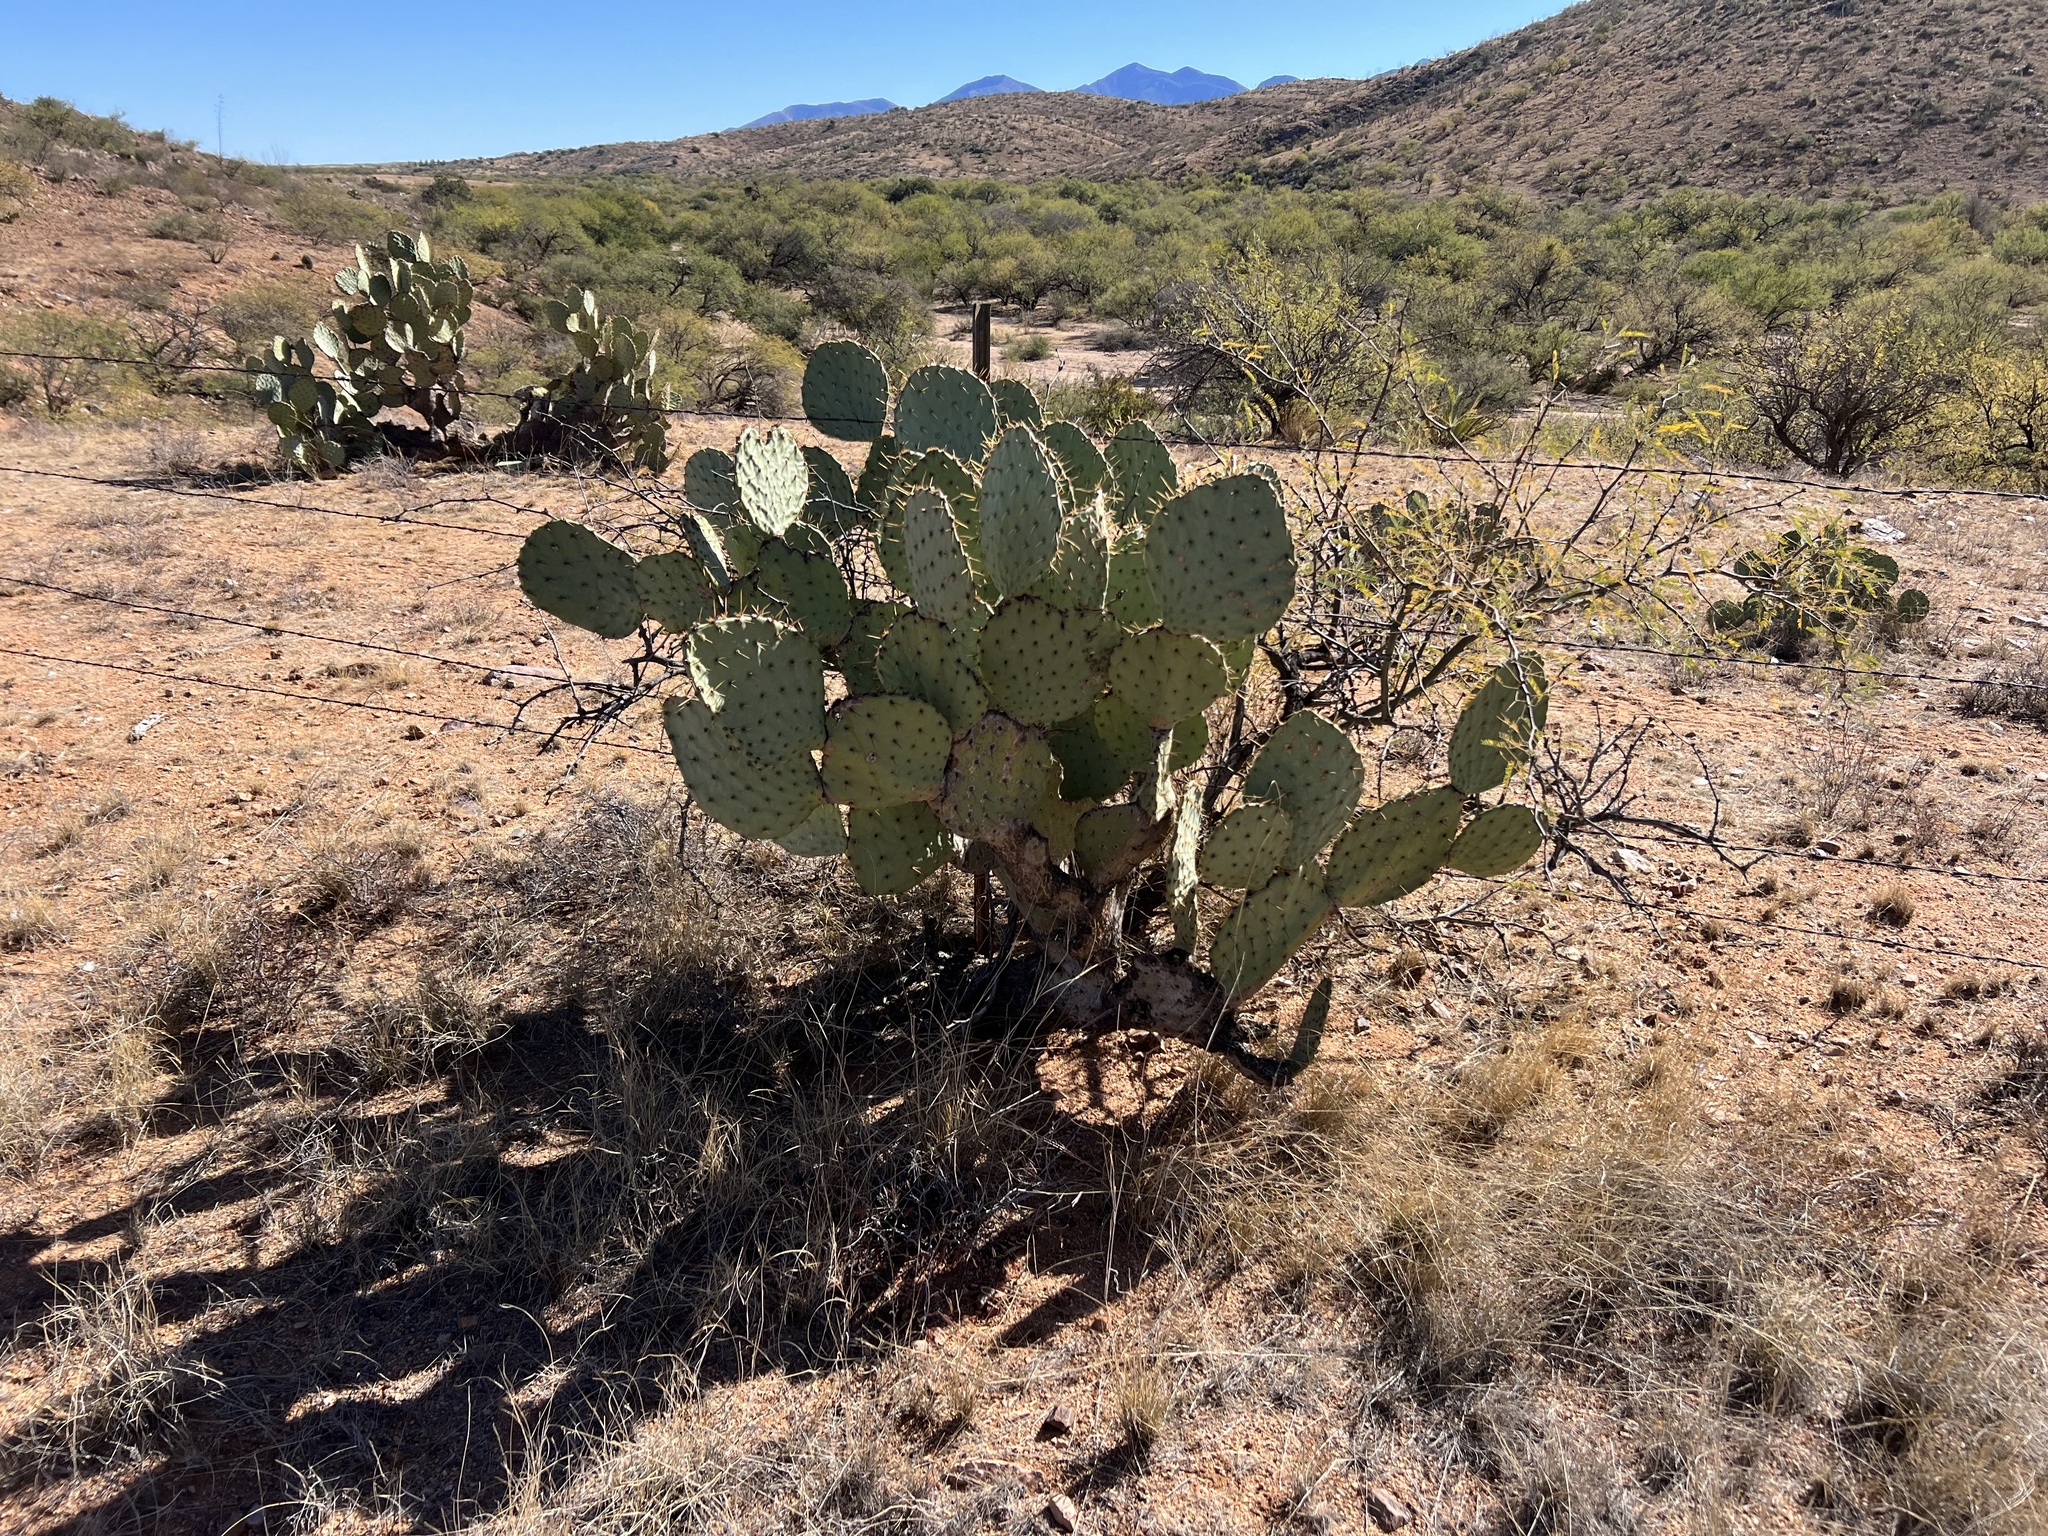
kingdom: Plantae
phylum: Tracheophyta
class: Magnoliopsida
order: Caryophyllales
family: Cactaceae
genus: Opuntia
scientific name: Opuntia engelmannii
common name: Cactus-apple
